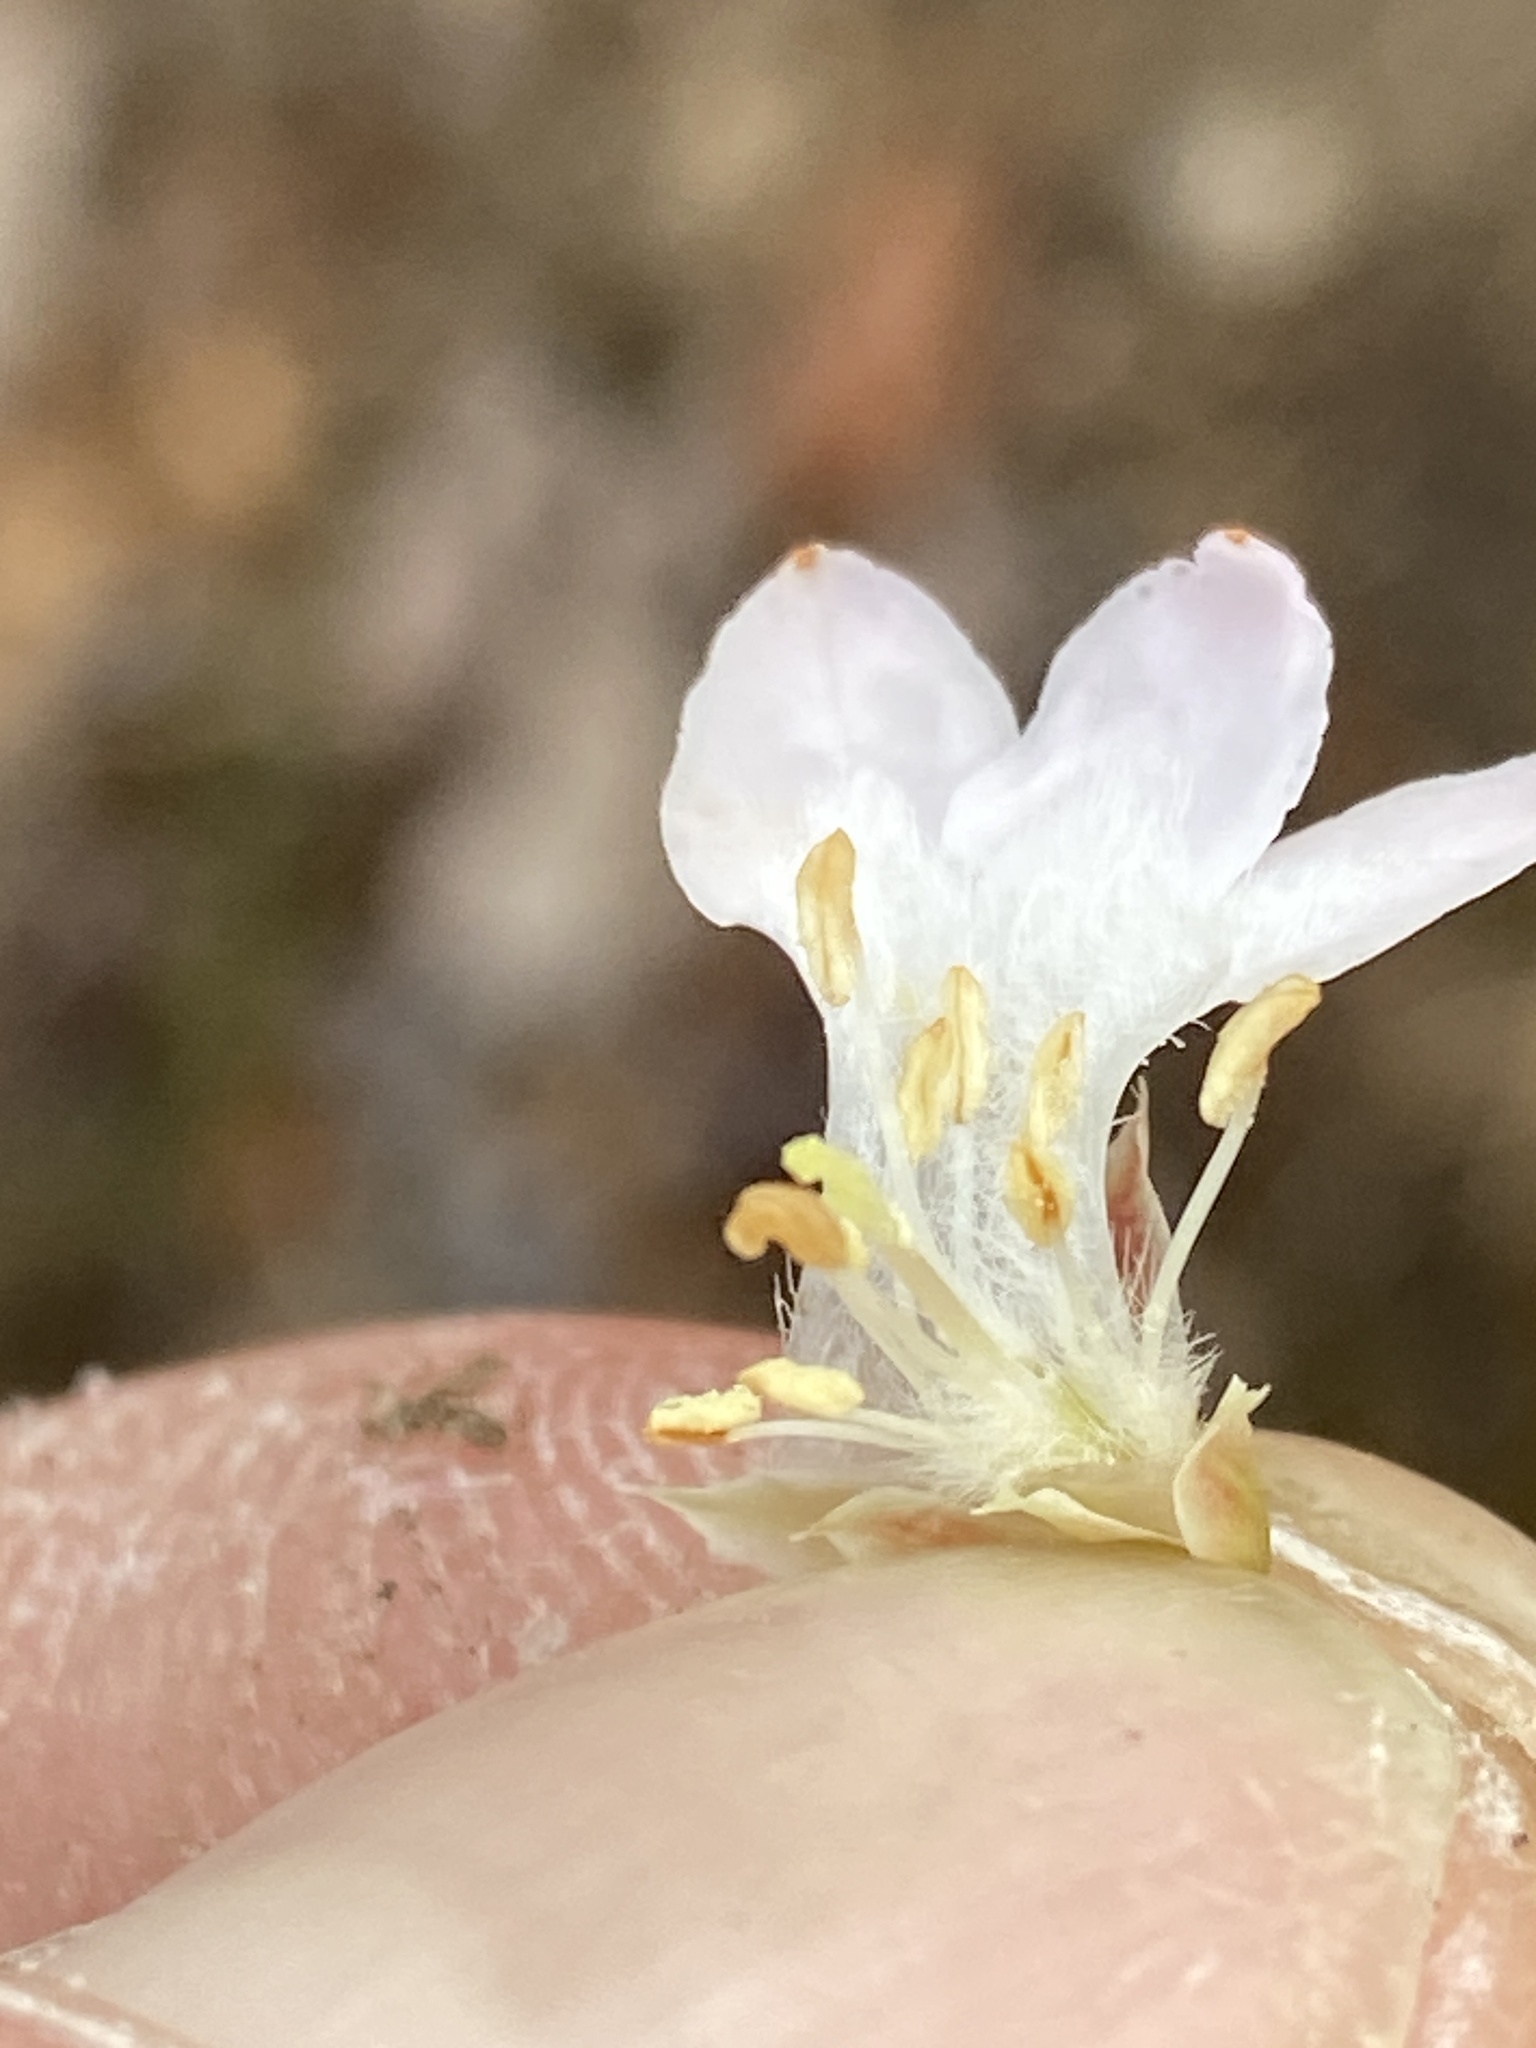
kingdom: Plantae
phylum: Tracheophyta
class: Magnoliopsida
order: Ericales
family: Ericaceae
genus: Epigaea
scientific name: Epigaea repens
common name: Gravelroot
